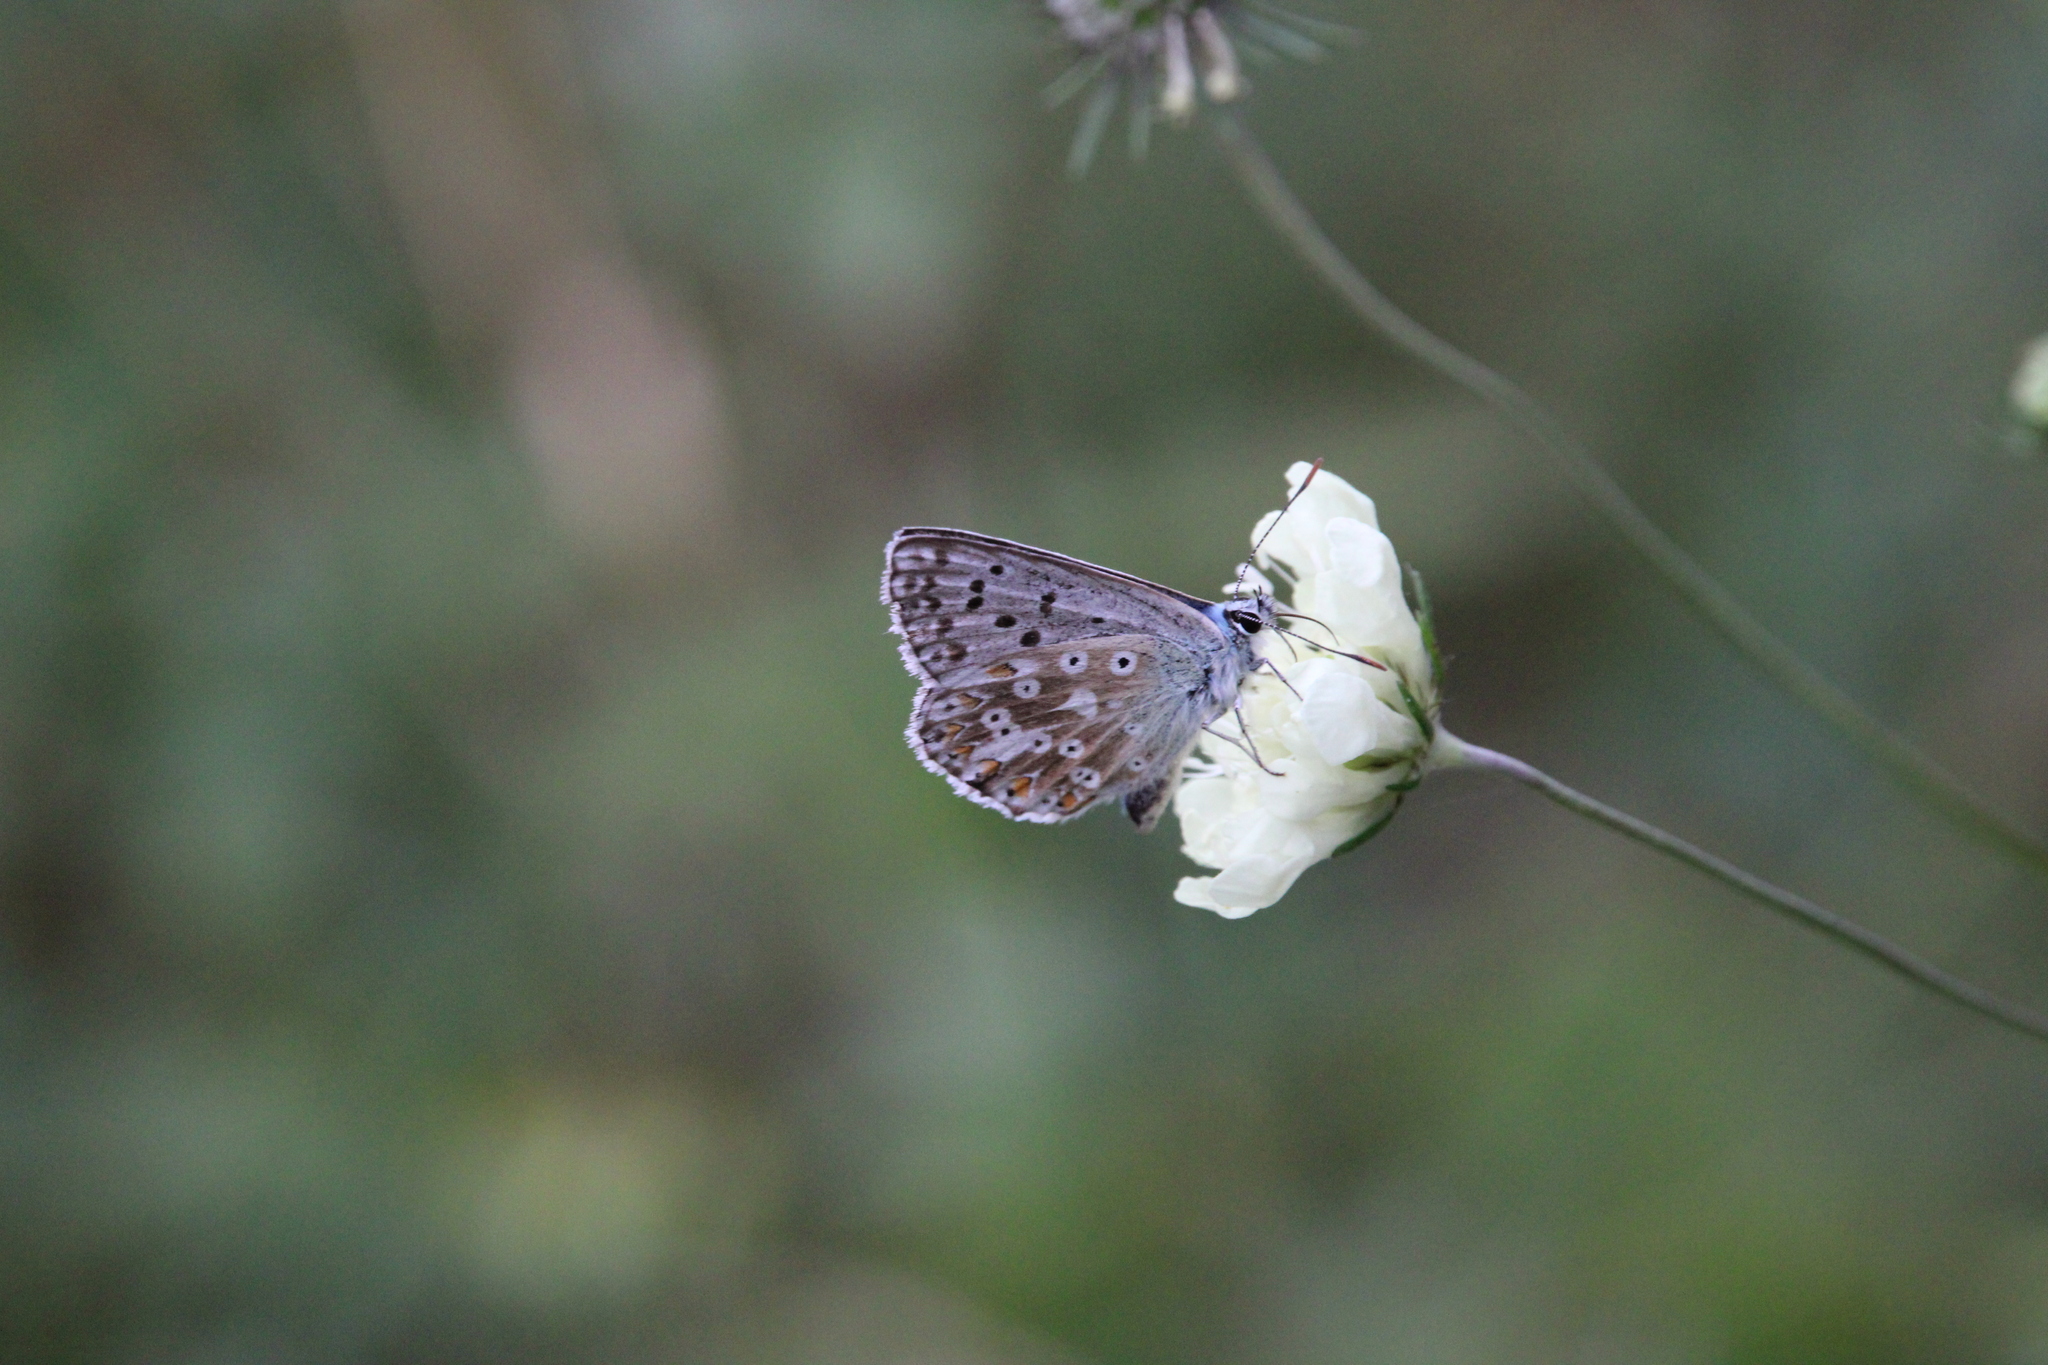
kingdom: Animalia
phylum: Arthropoda
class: Insecta
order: Lepidoptera
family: Lycaenidae
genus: Lysandra
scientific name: Lysandra coridon
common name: Chalkhill blue
